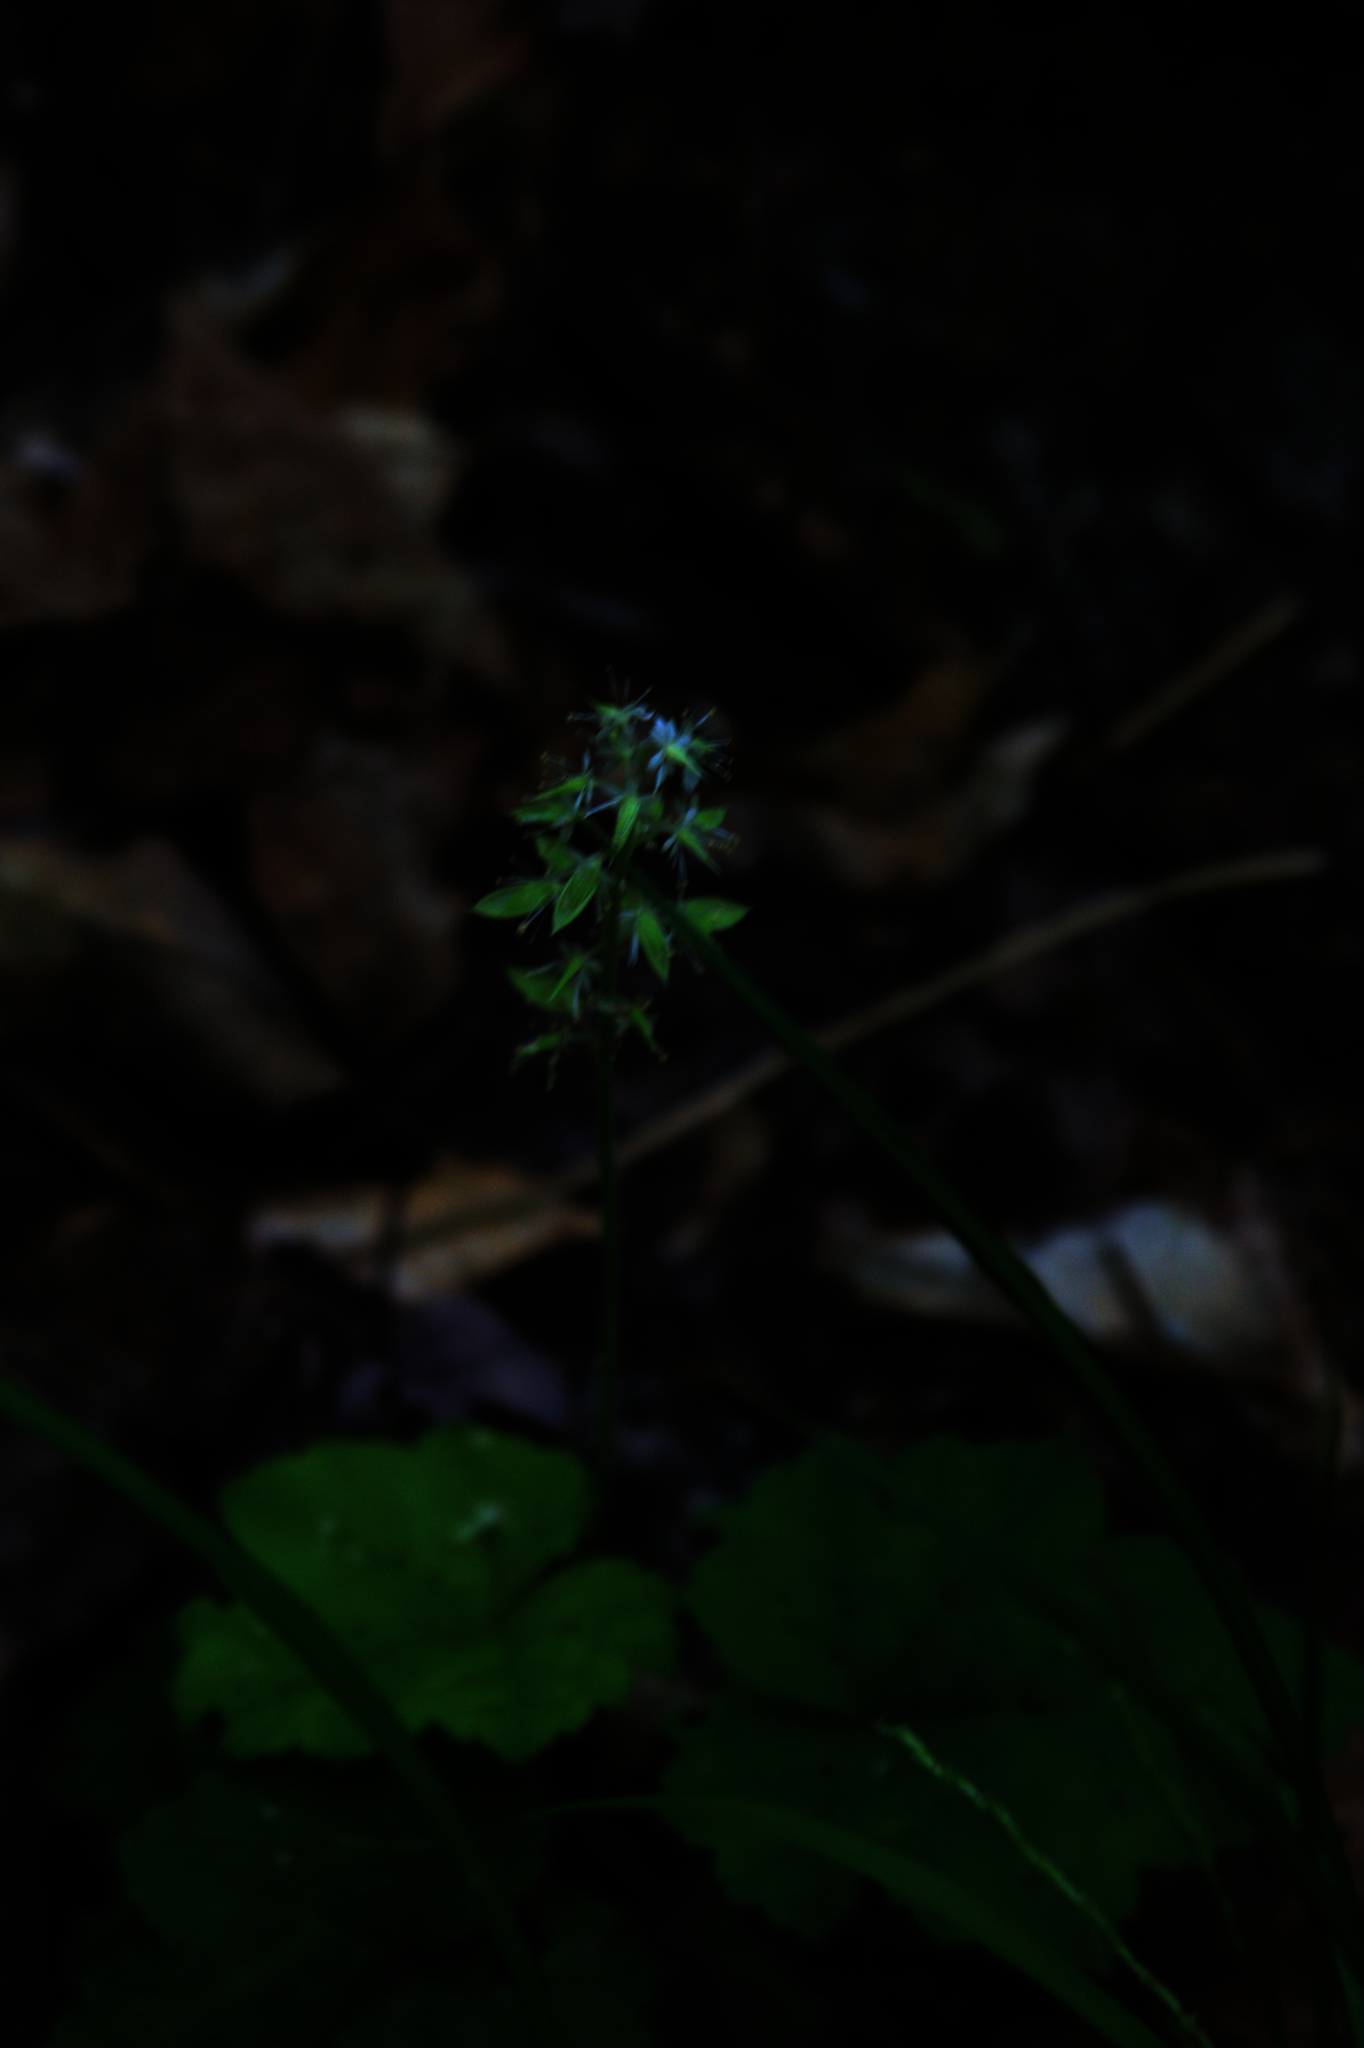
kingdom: Plantae
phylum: Tracheophyta
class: Magnoliopsida
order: Saxifragales
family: Saxifragaceae
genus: Tiarella
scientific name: Tiarella stolonifera
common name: Stoloniferous foamflower
